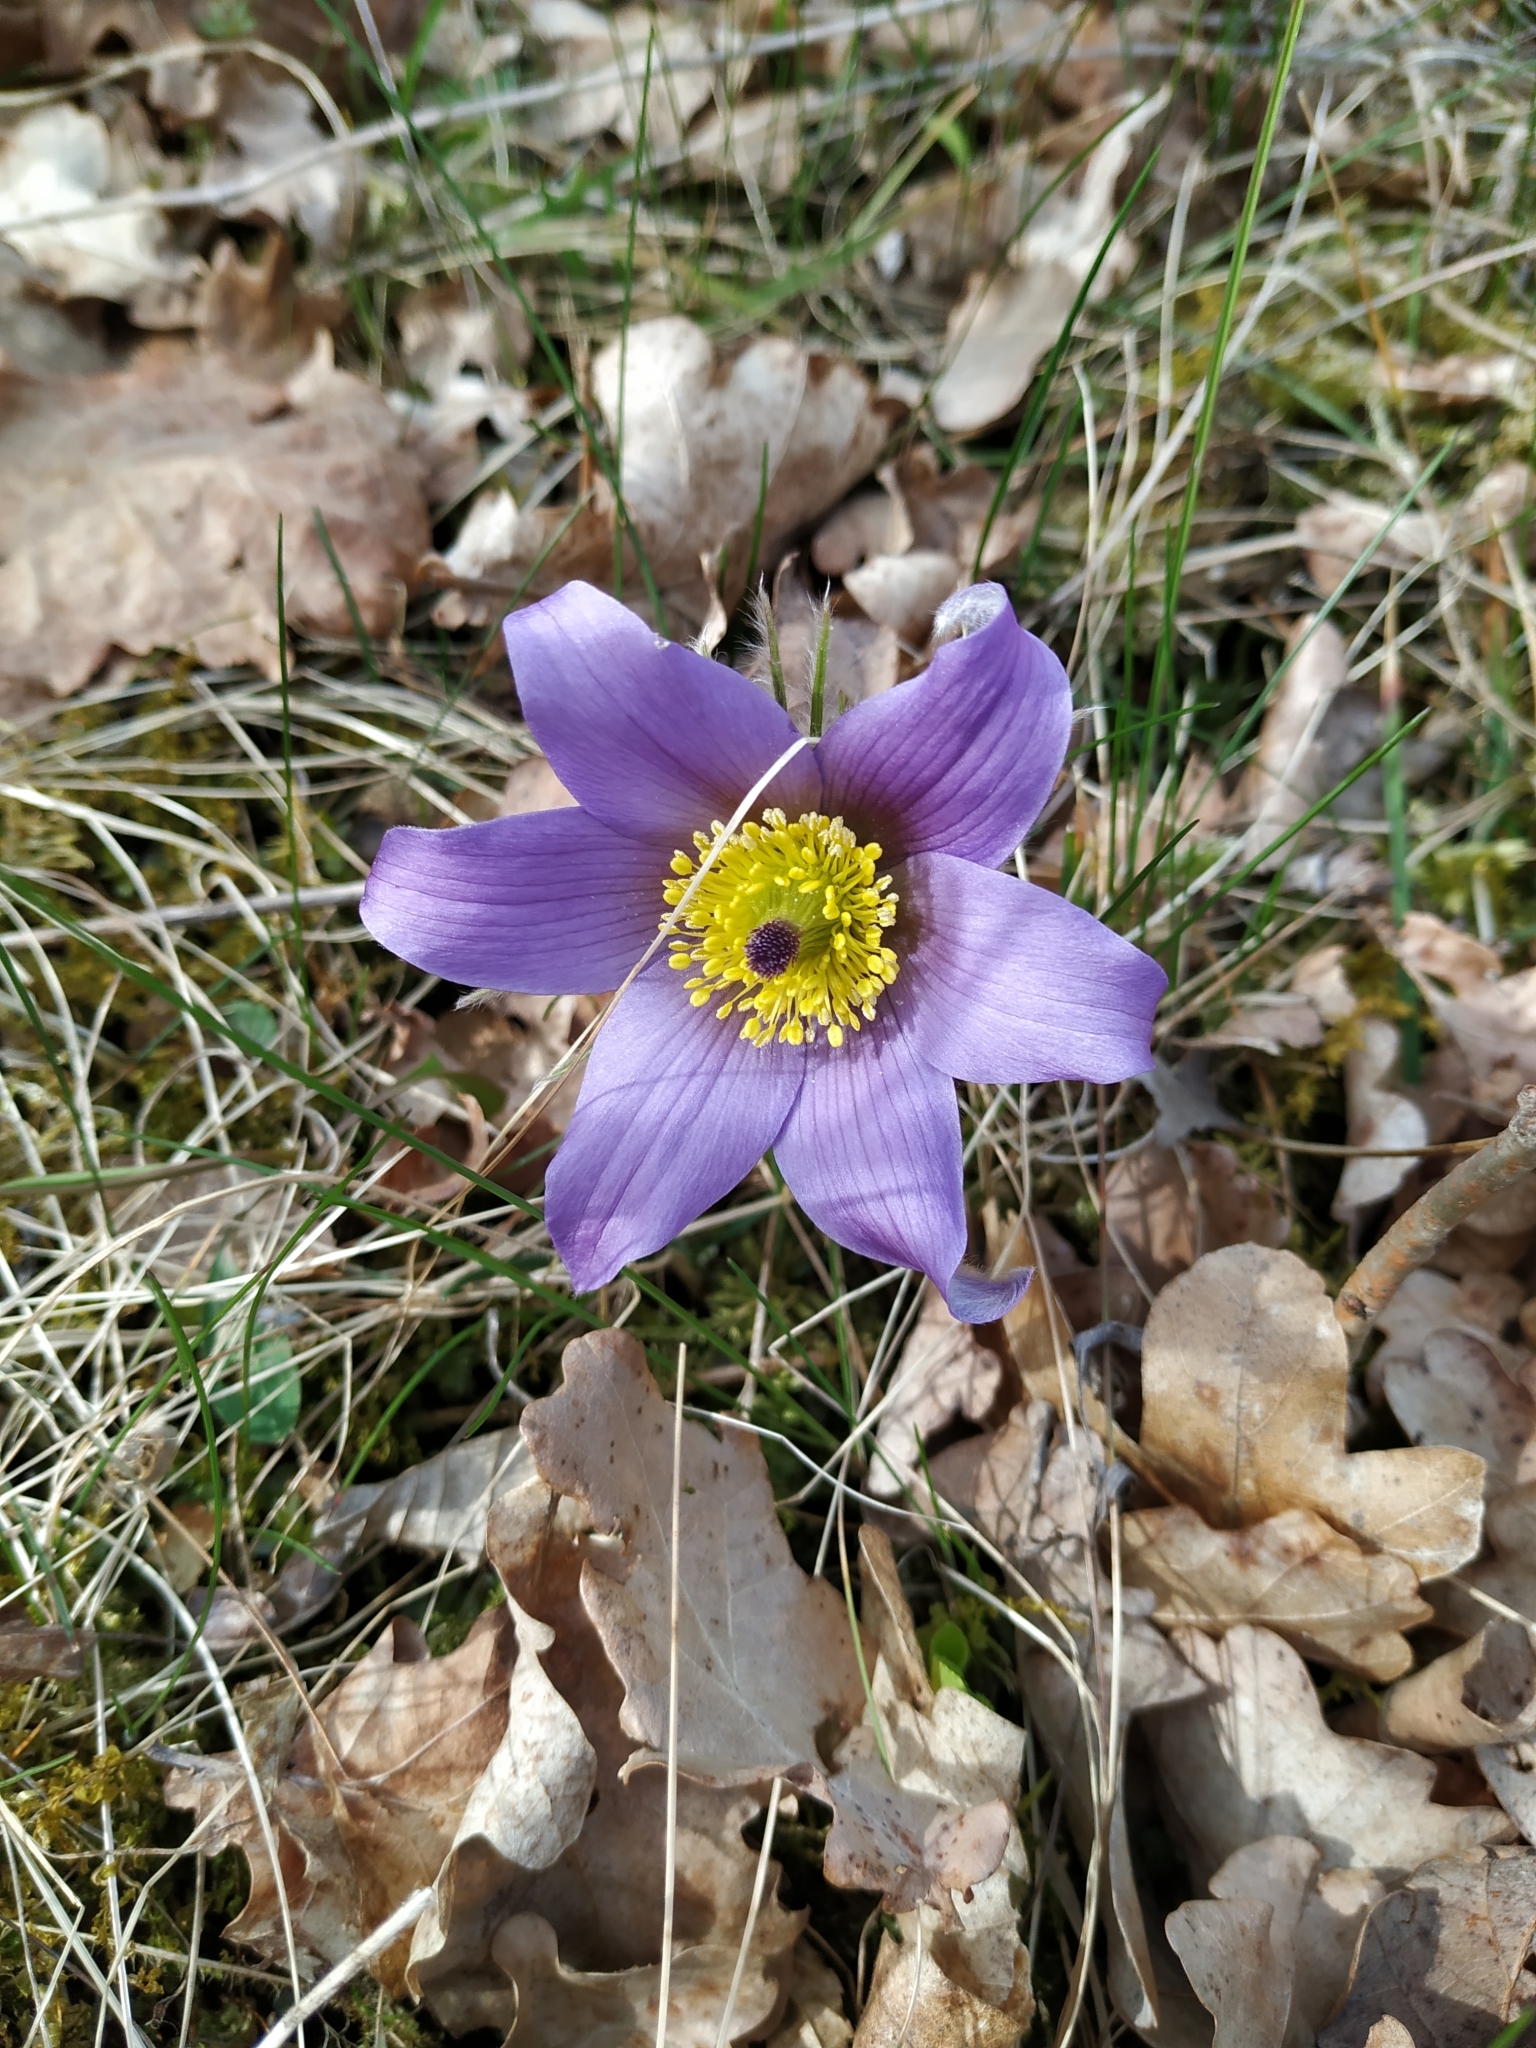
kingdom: Plantae
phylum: Tracheophyta
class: Magnoliopsida
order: Ranunculales
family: Ranunculaceae
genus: Pulsatilla
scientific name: Pulsatilla vulgaris
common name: Pasqueflower
